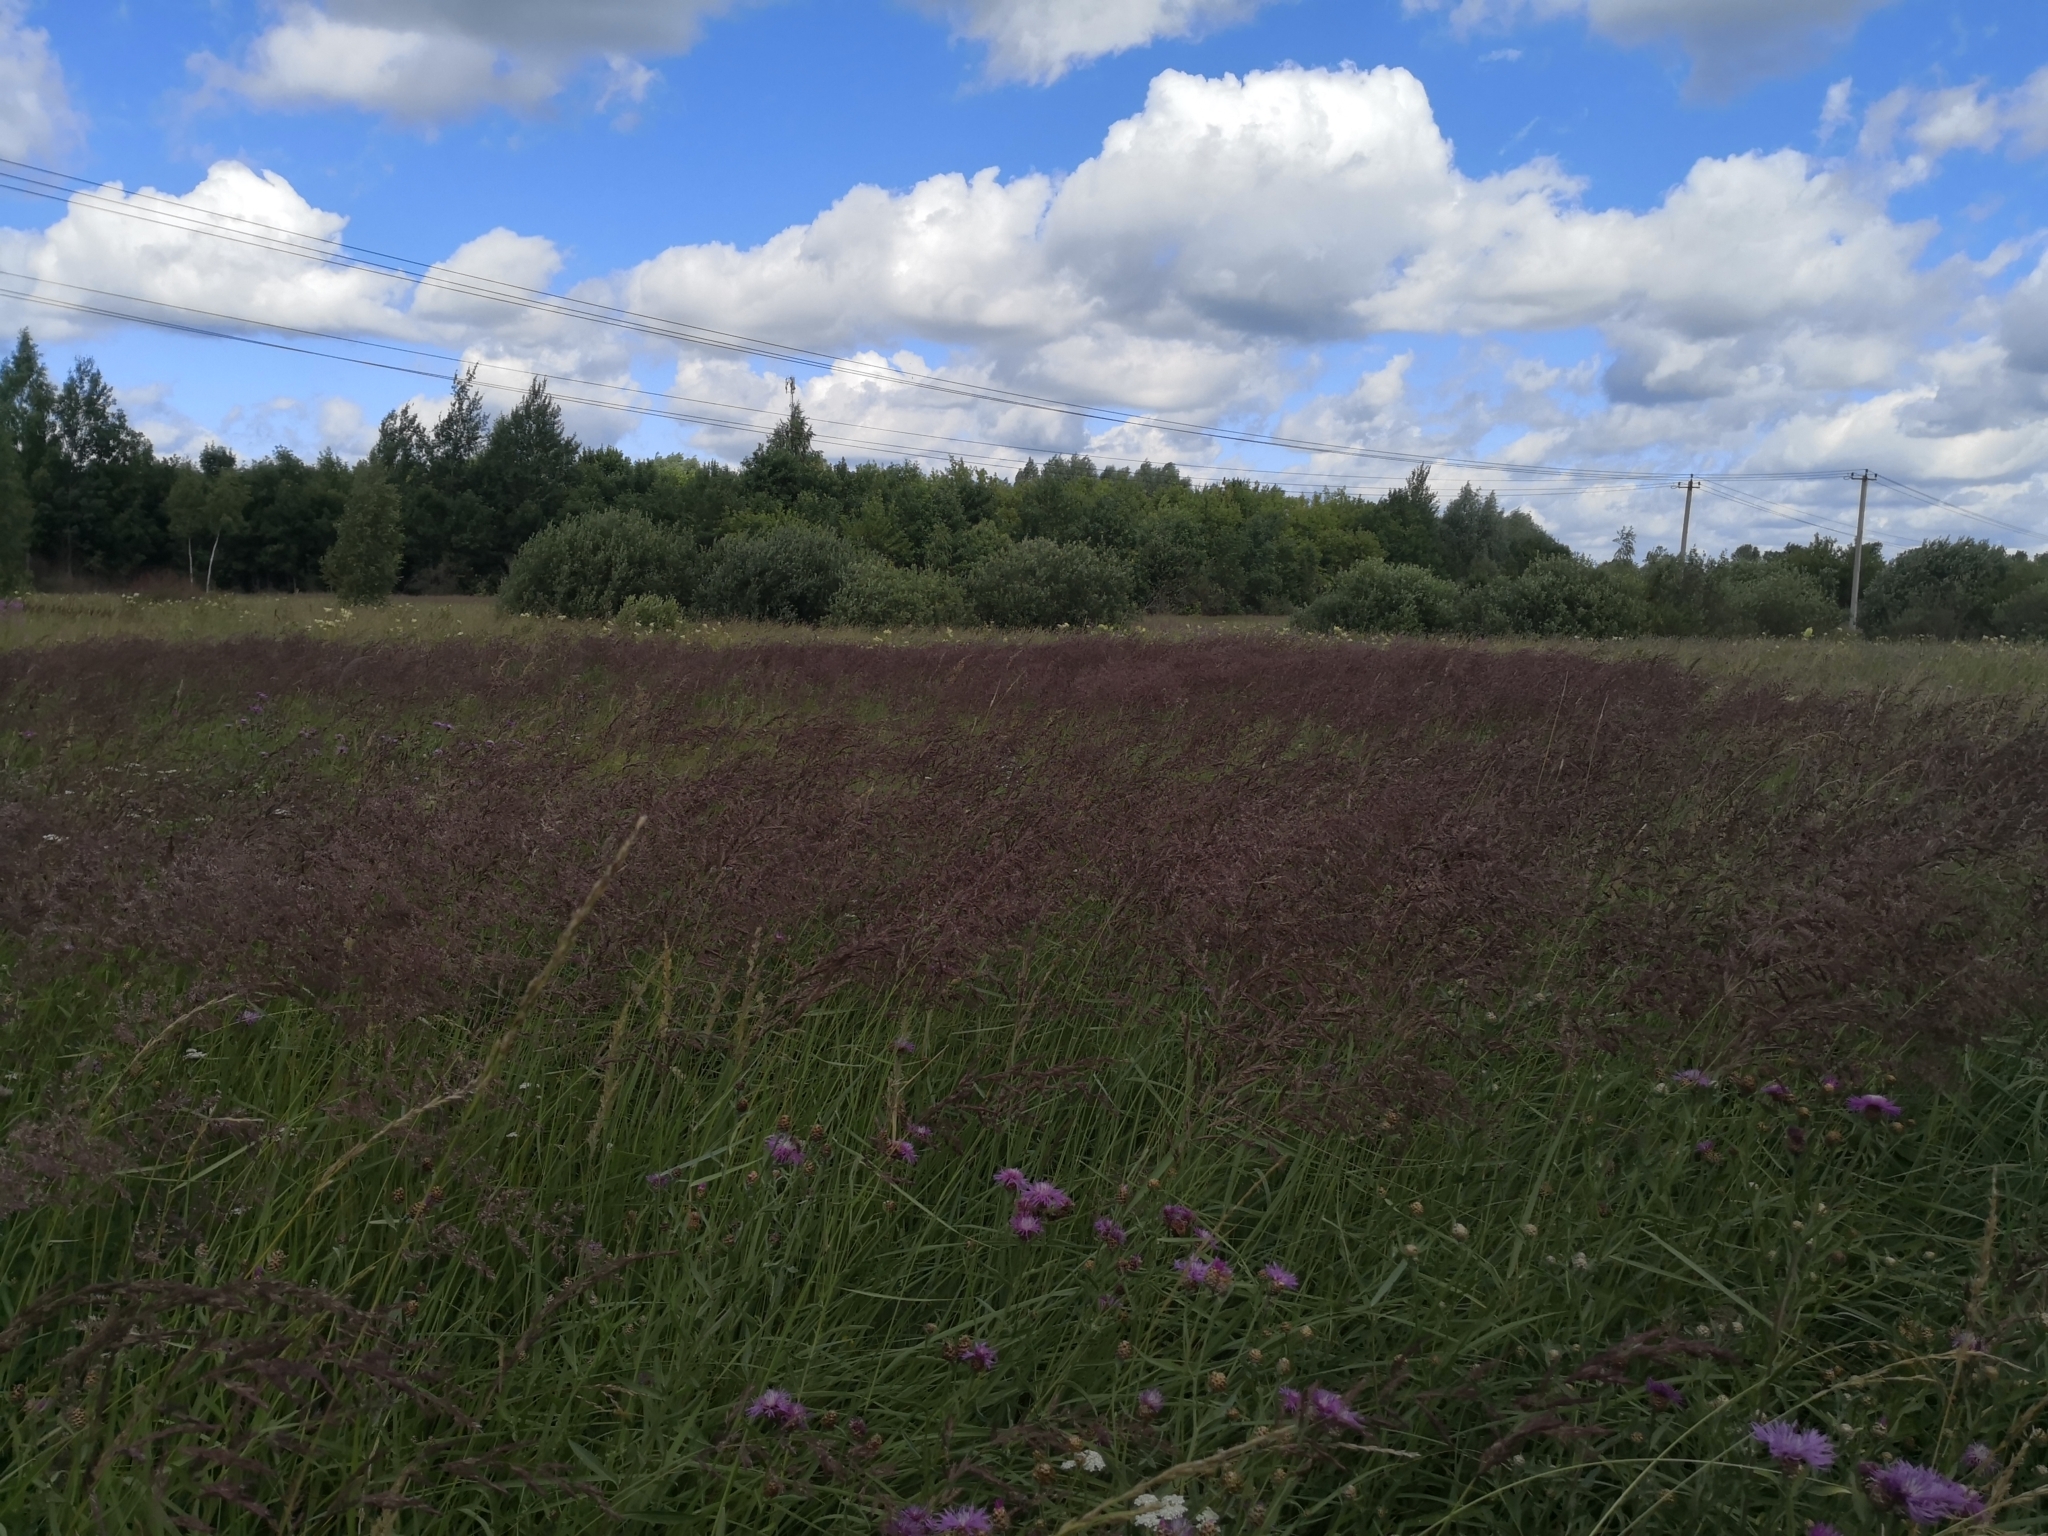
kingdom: Plantae
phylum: Tracheophyta
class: Liliopsida
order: Poales
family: Poaceae
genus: Calamagrostis
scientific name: Calamagrostis epigejos
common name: Wood small-reed
